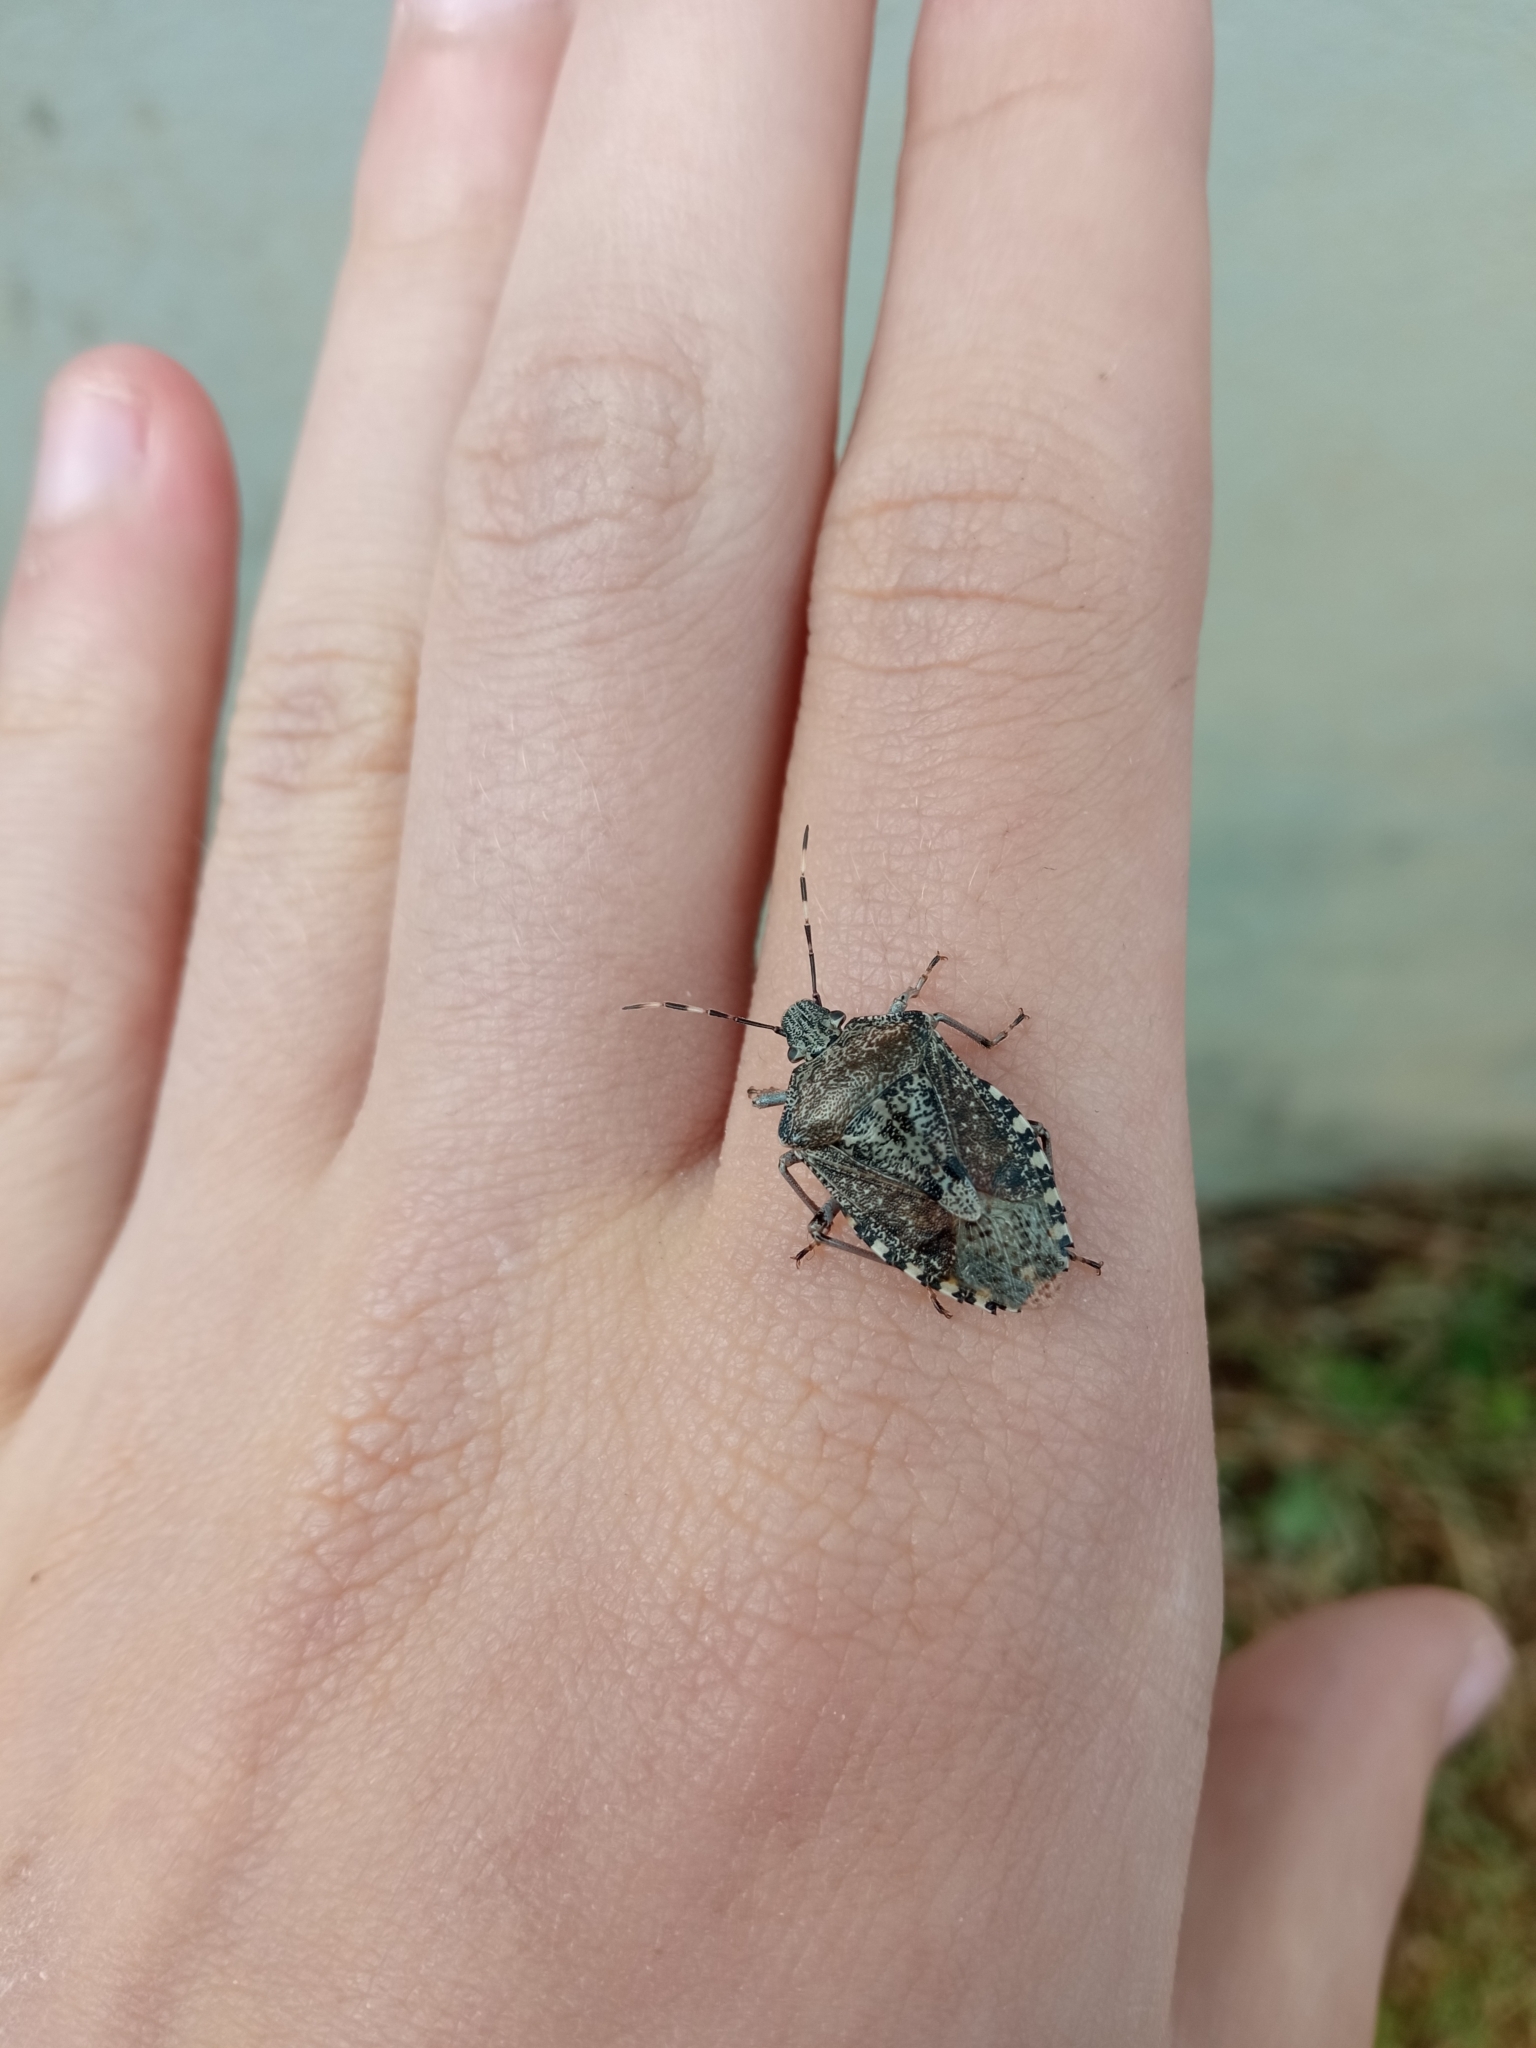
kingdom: Animalia
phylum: Arthropoda
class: Insecta
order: Hemiptera
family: Pentatomidae
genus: Rhaphigaster
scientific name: Rhaphigaster nebulosa
